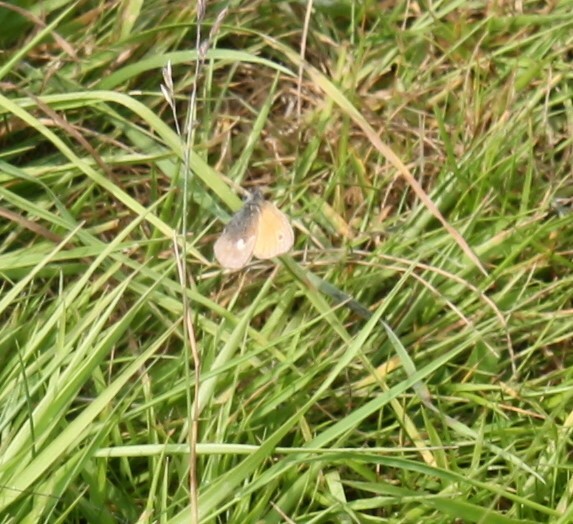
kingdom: Animalia
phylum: Arthropoda
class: Insecta
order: Lepidoptera
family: Nymphalidae
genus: Coenonympha
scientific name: Coenonympha pamphilus
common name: Small heath
